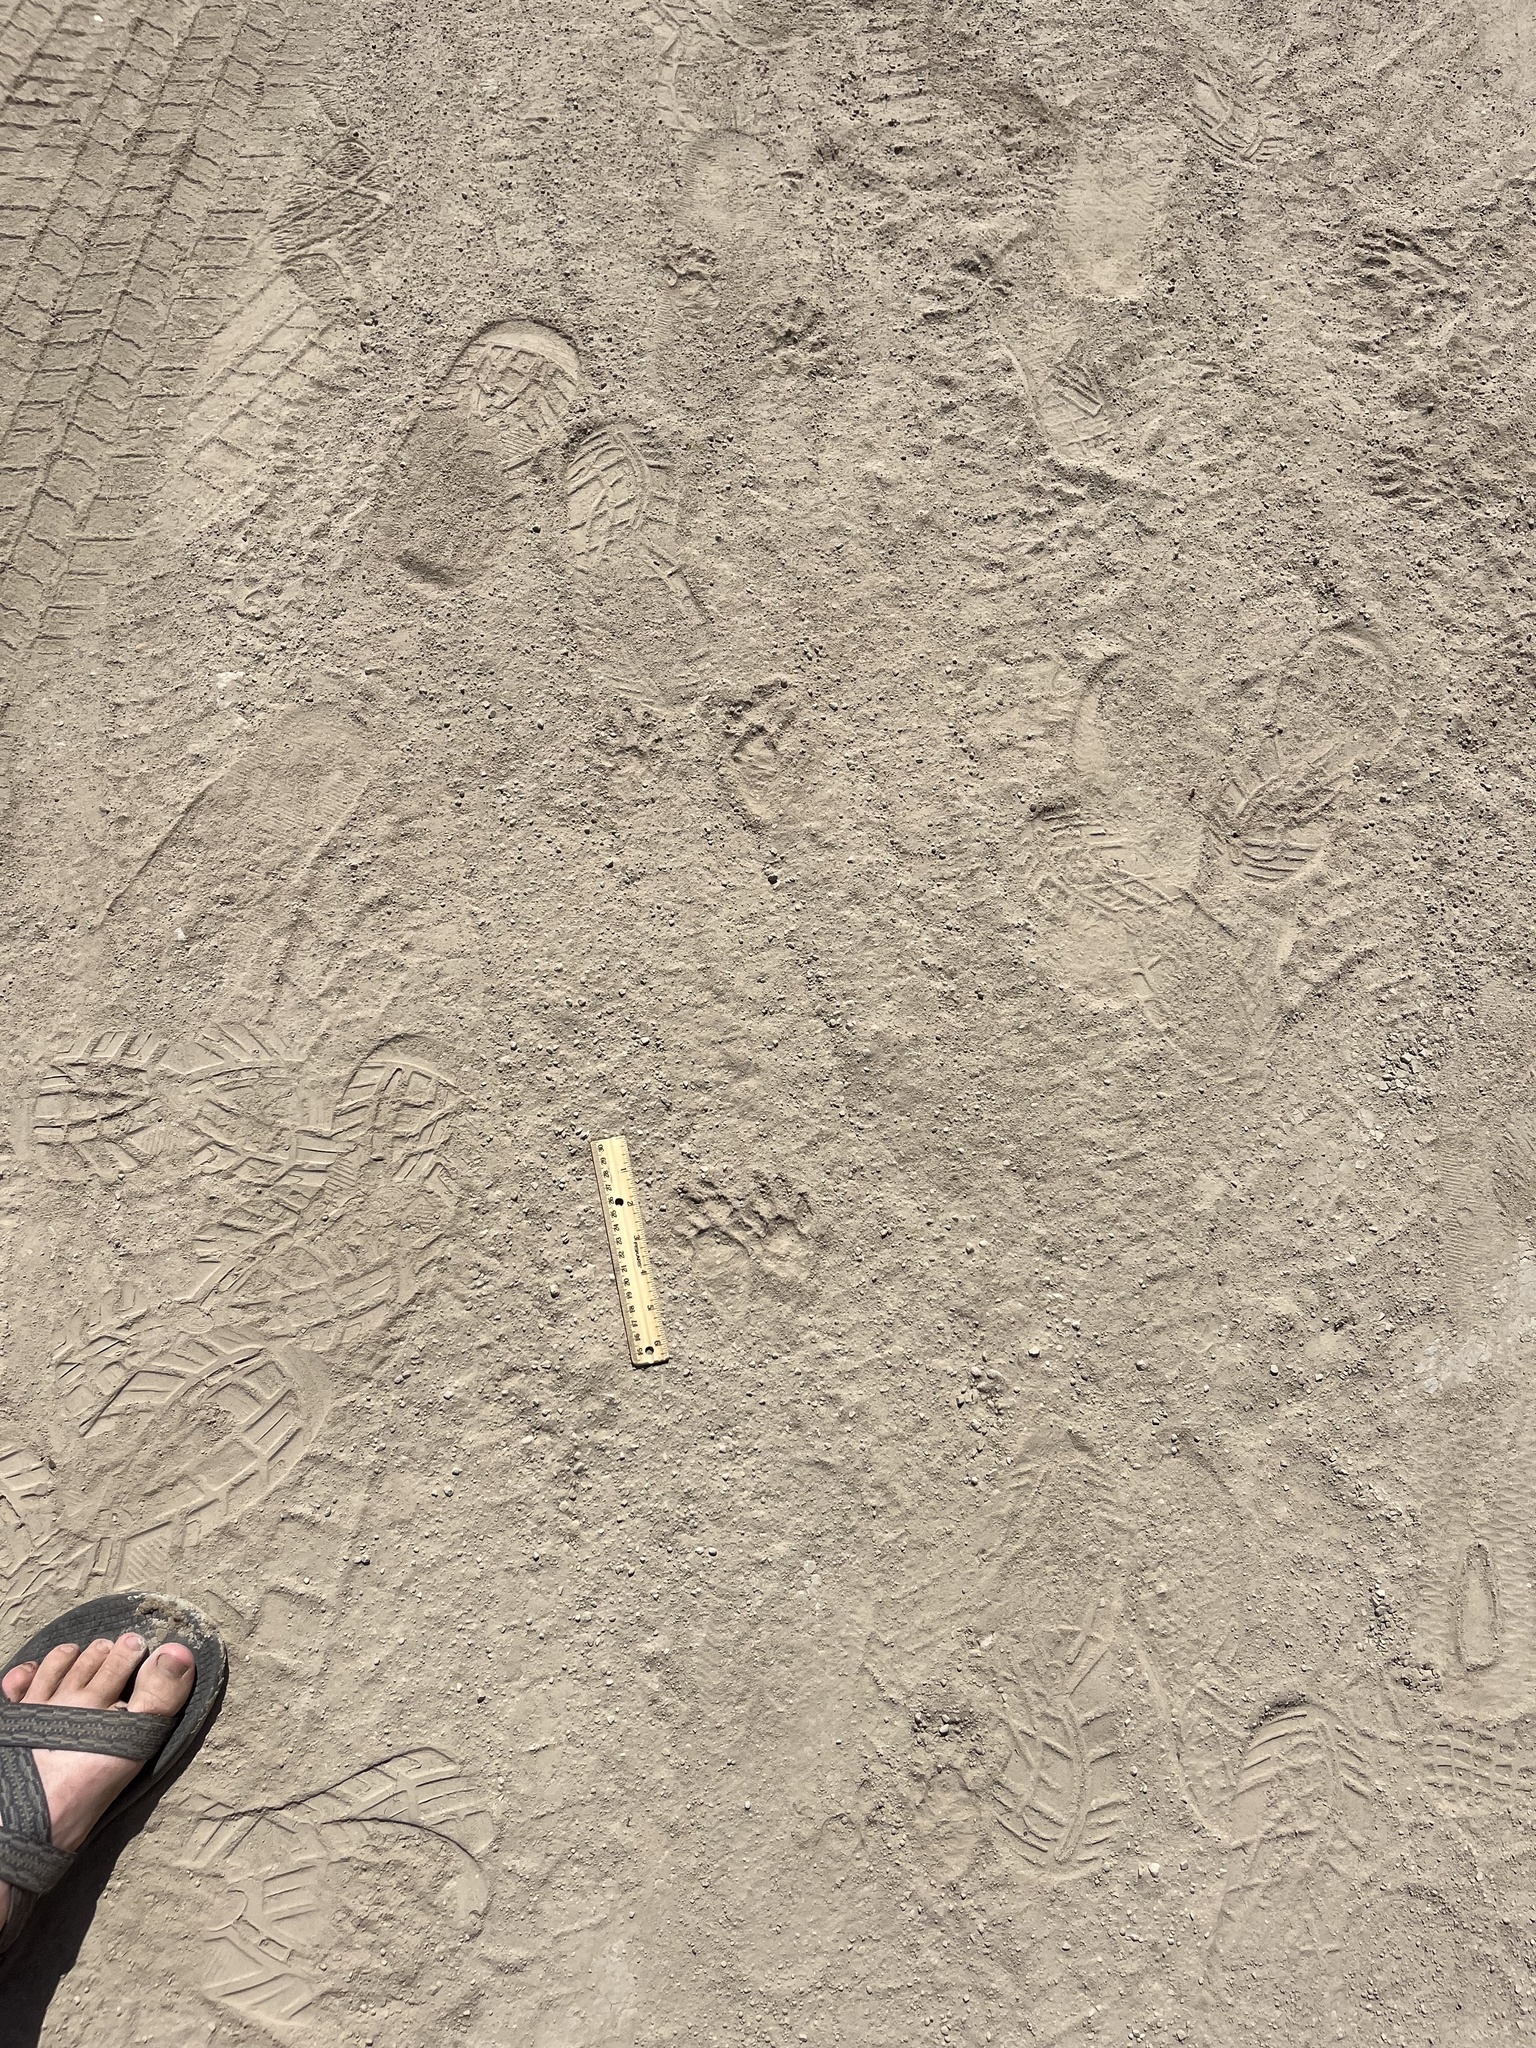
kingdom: Animalia
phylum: Chordata
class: Mammalia
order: Carnivora
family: Procyonidae
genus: Procyon
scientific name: Procyon lotor
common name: Raccoon
